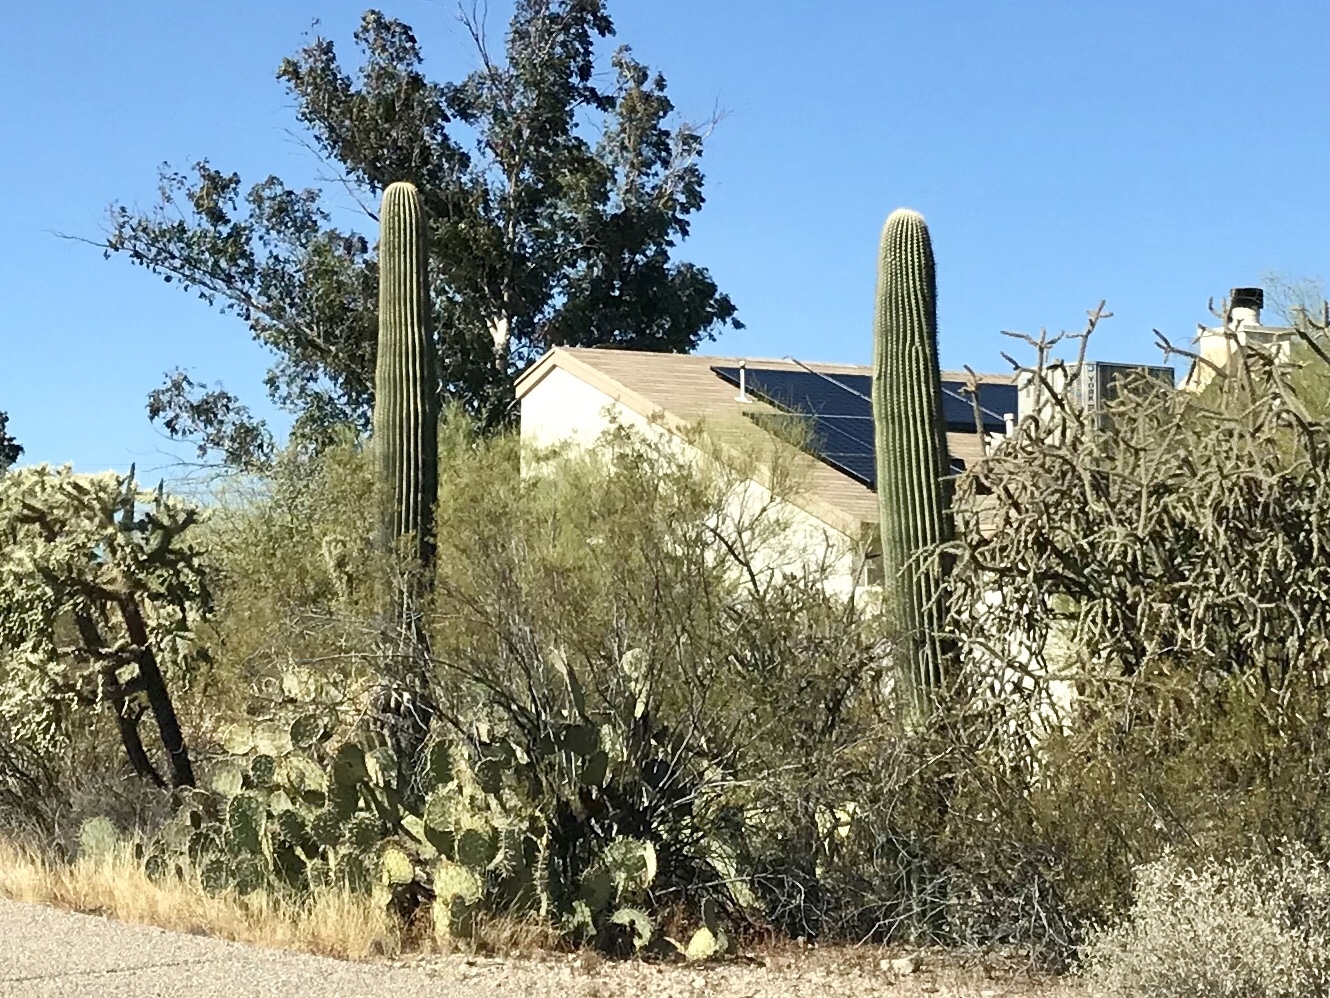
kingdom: Plantae
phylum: Tracheophyta
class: Magnoliopsida
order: Caryophyllales
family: Cactaceae
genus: Carnegiea
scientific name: Carnegiea gigantea
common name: Saguaro
